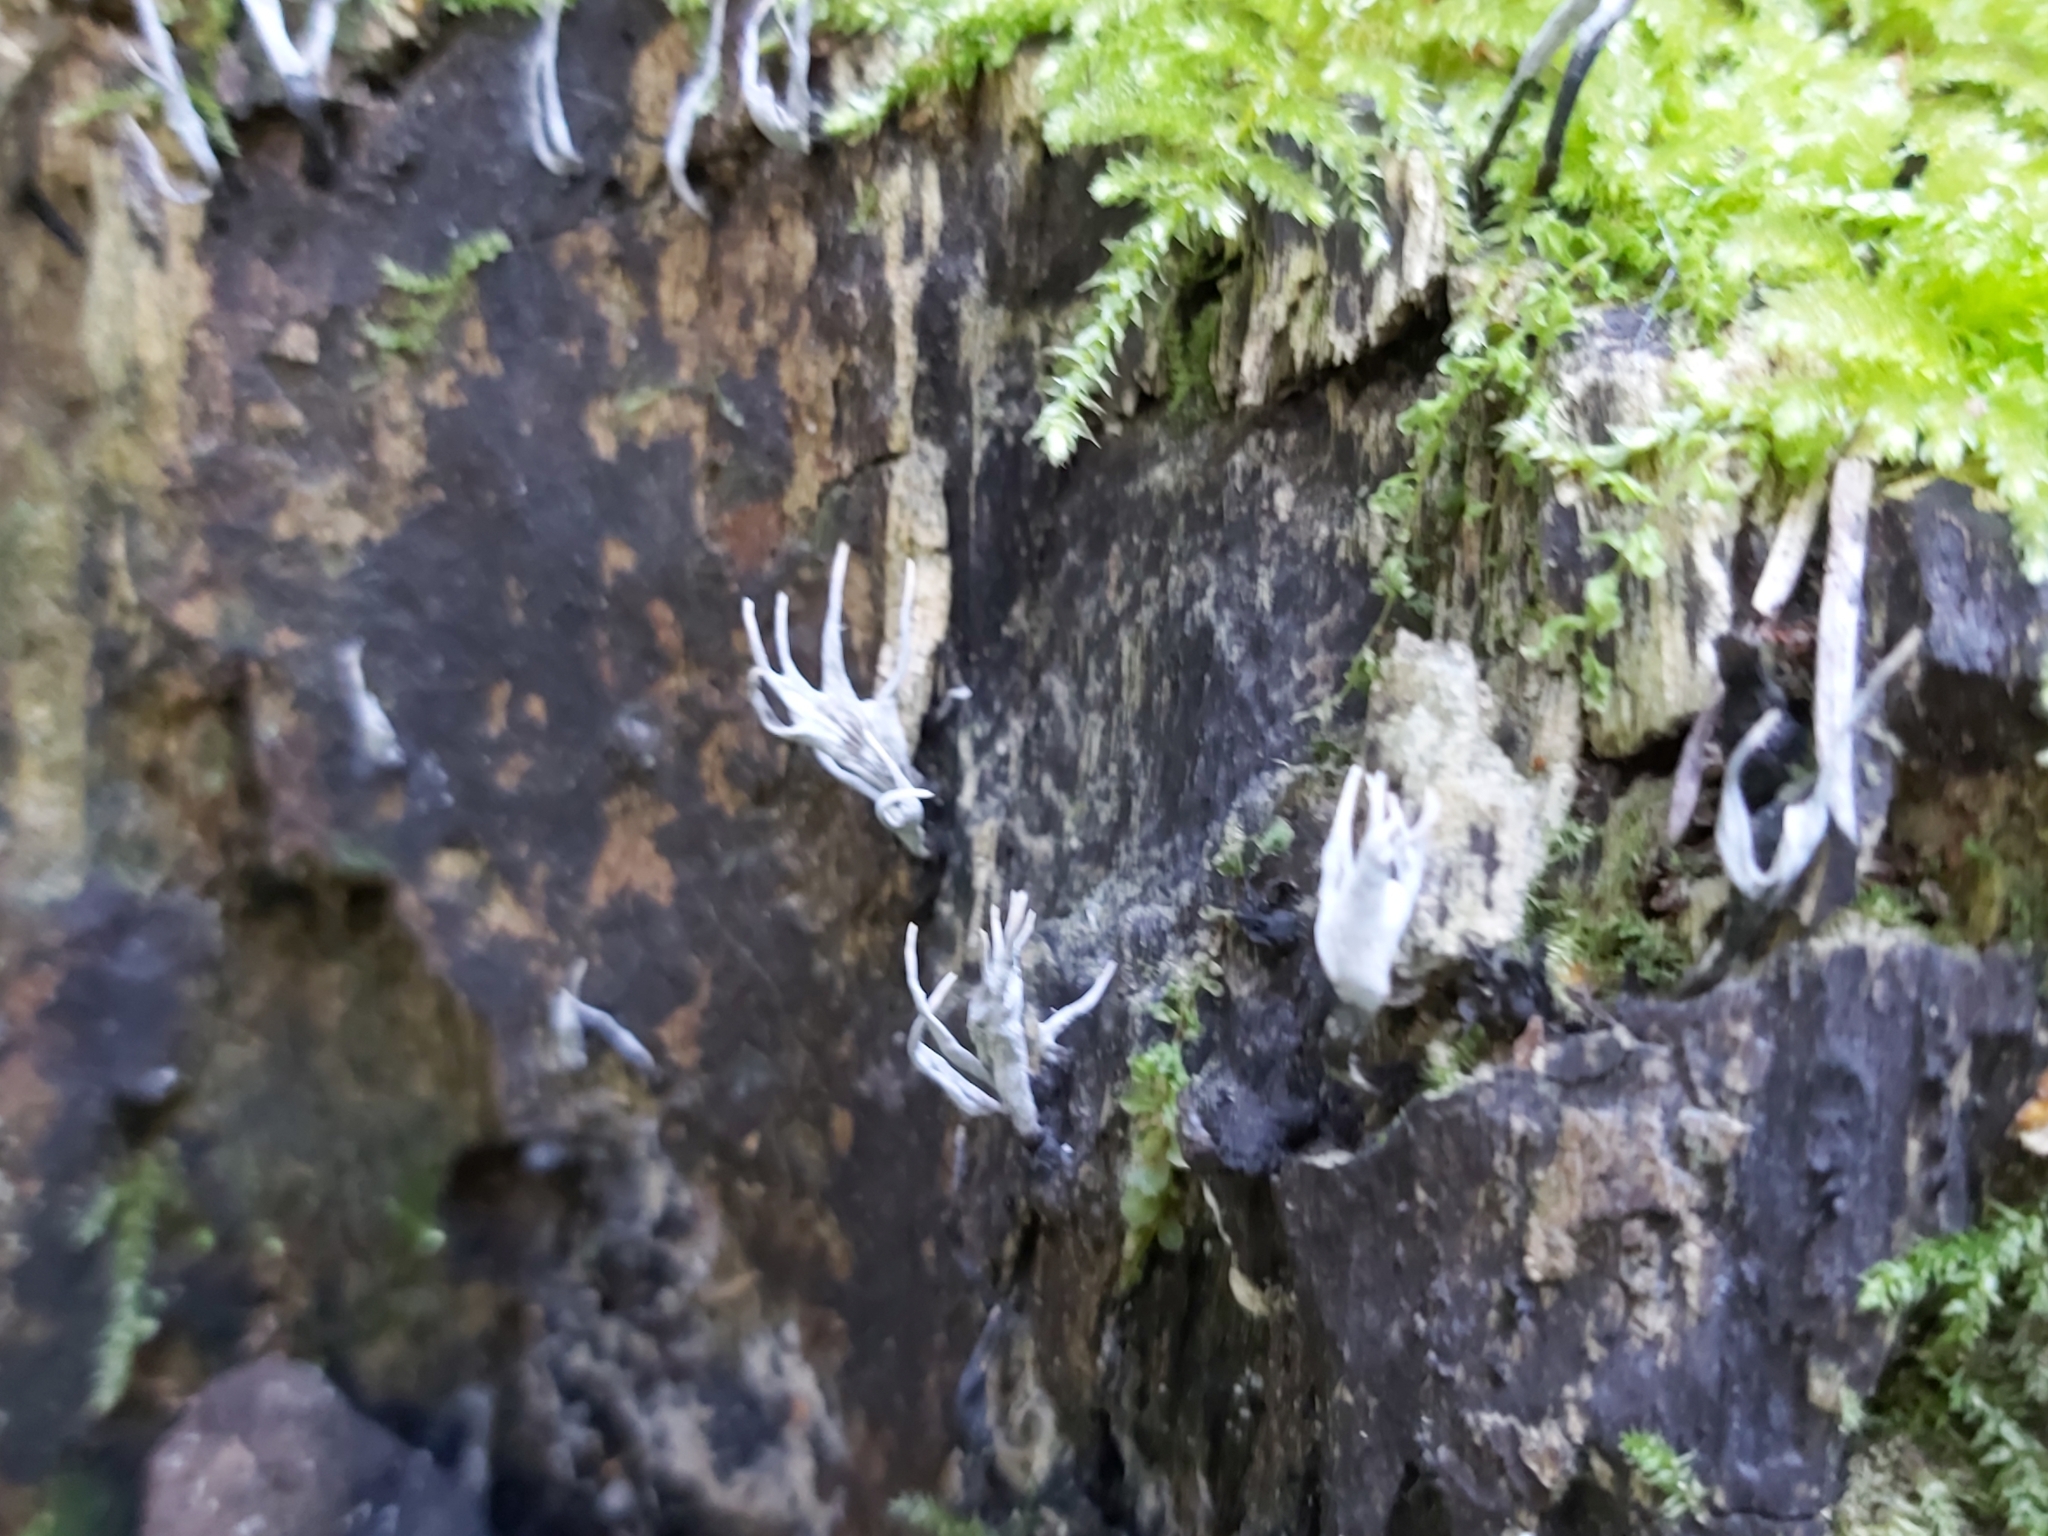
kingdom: Fungi
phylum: Ascomycota
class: Sordariomycetes
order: Xylariales
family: Xylariaceae
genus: Xylaria
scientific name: Xylaria hypoxylon
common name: Candle-snuff fungus
